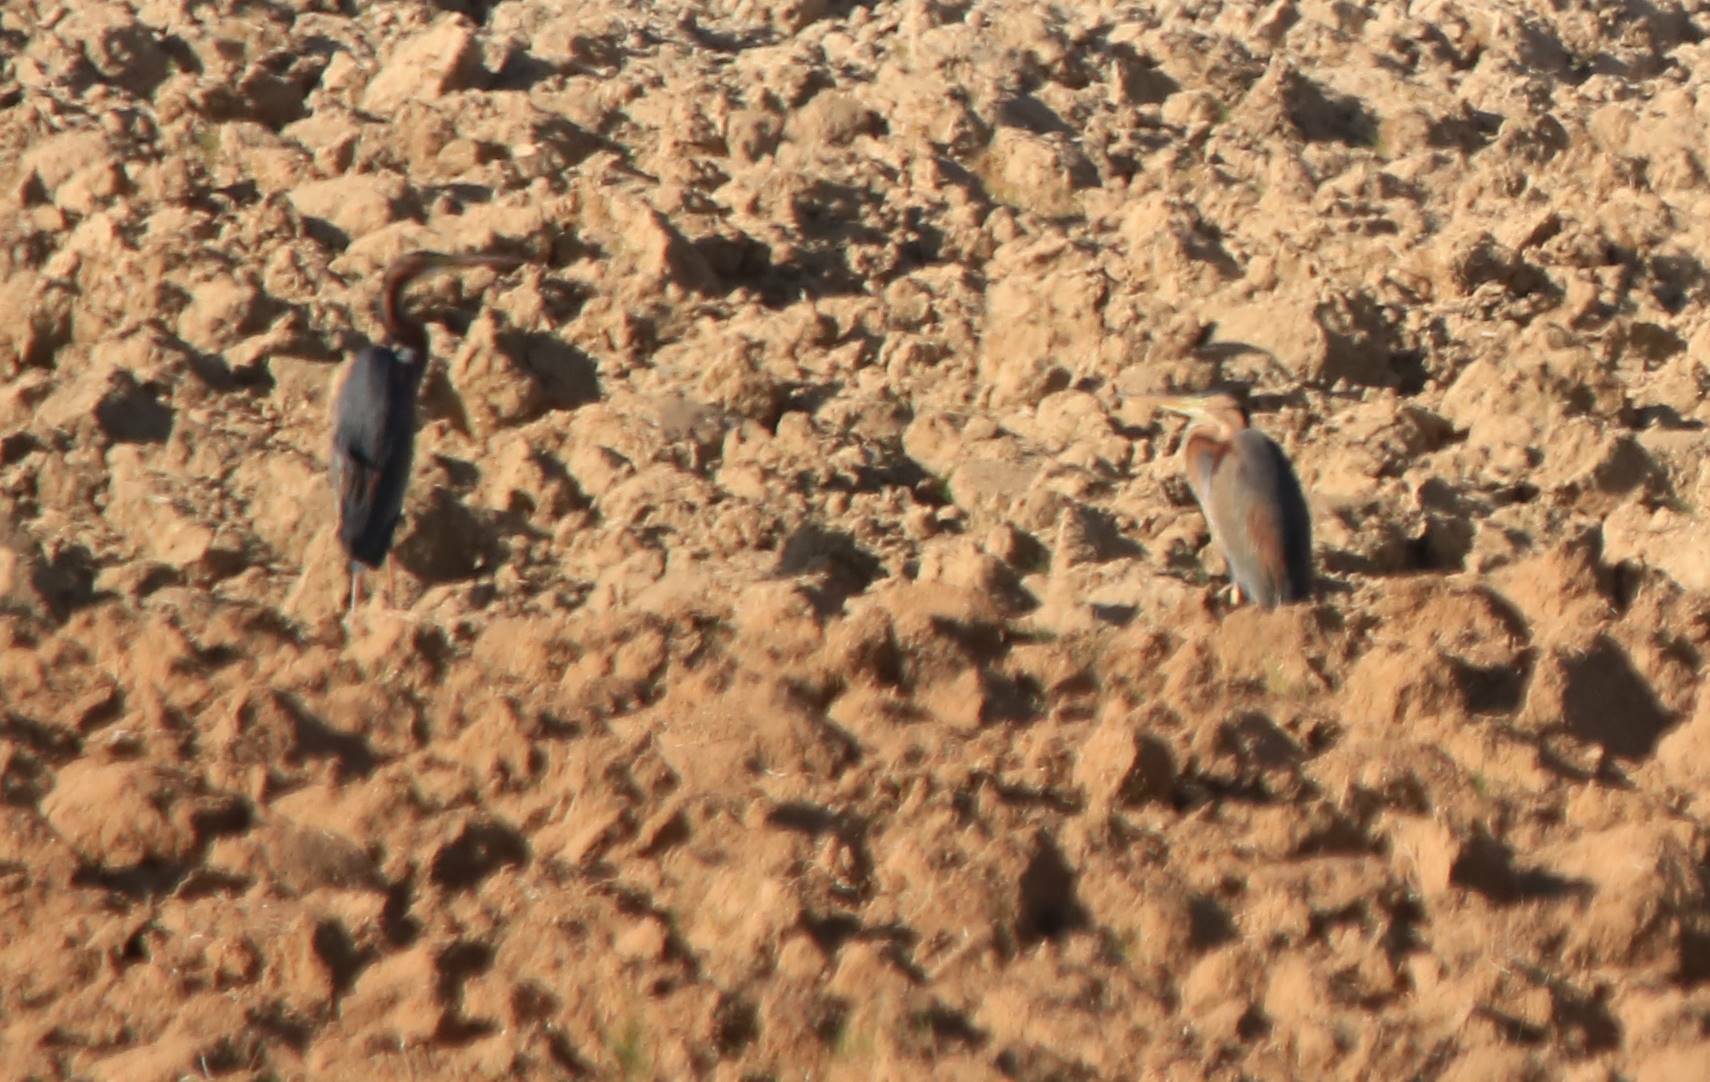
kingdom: Animalia
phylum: Chordata
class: Aves
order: Pelecaniformes
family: Ardeidae
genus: Ardea
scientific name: Ardea purpurea
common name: Purple heron
